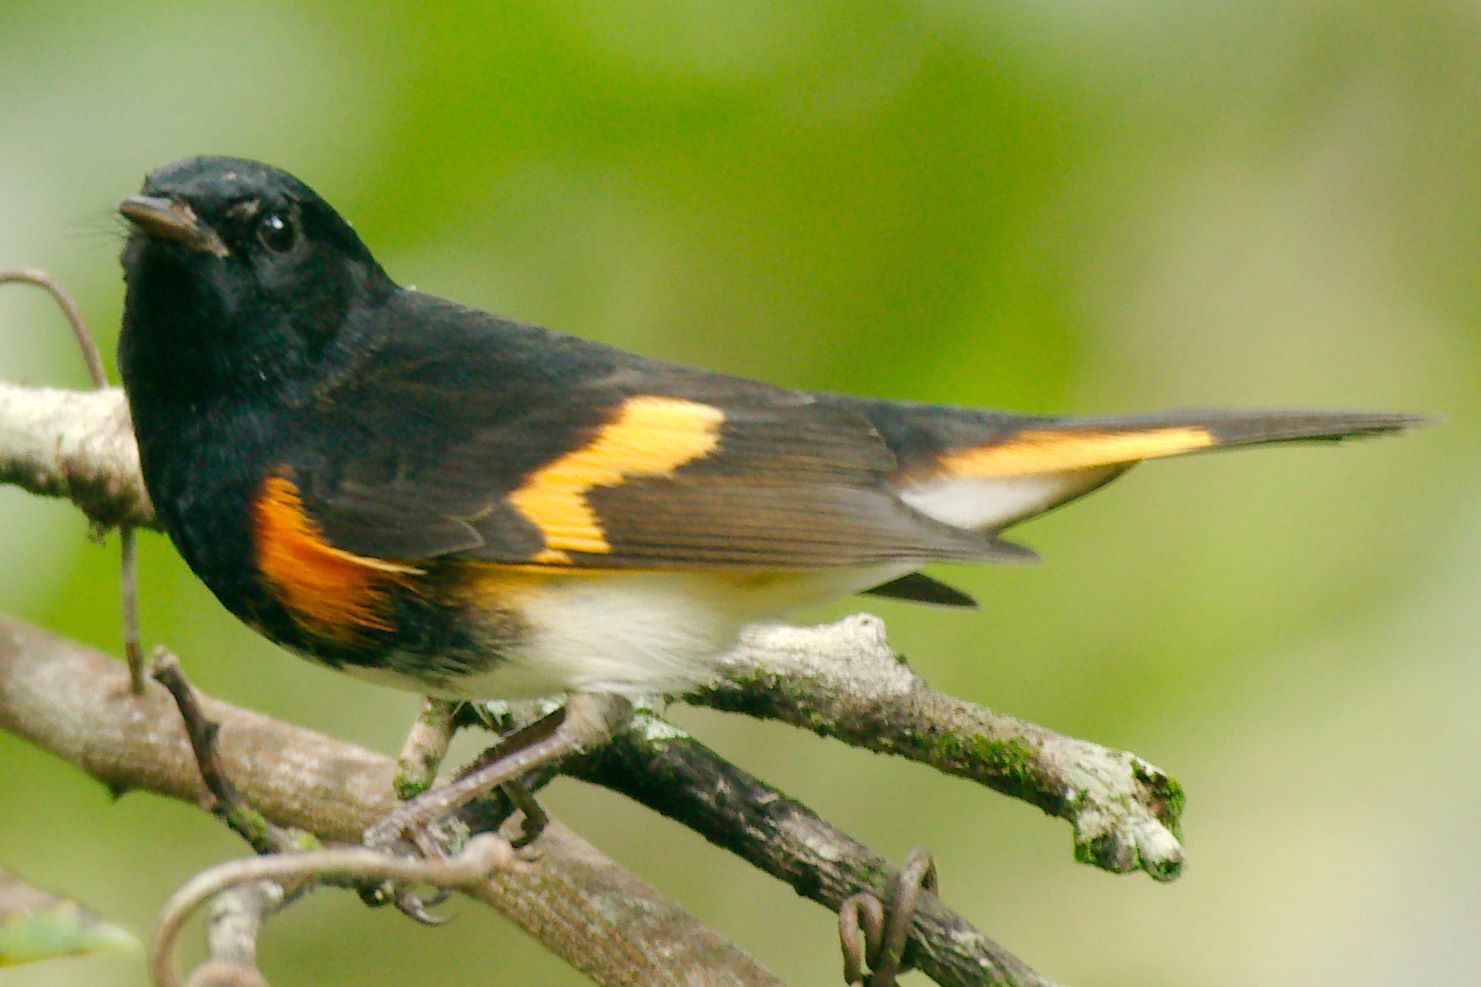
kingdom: Animalia
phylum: Chordata
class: Aves
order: Passeriformes
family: Parulidae
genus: Setophaga
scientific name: Setophaga ruticilla
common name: American redstart
